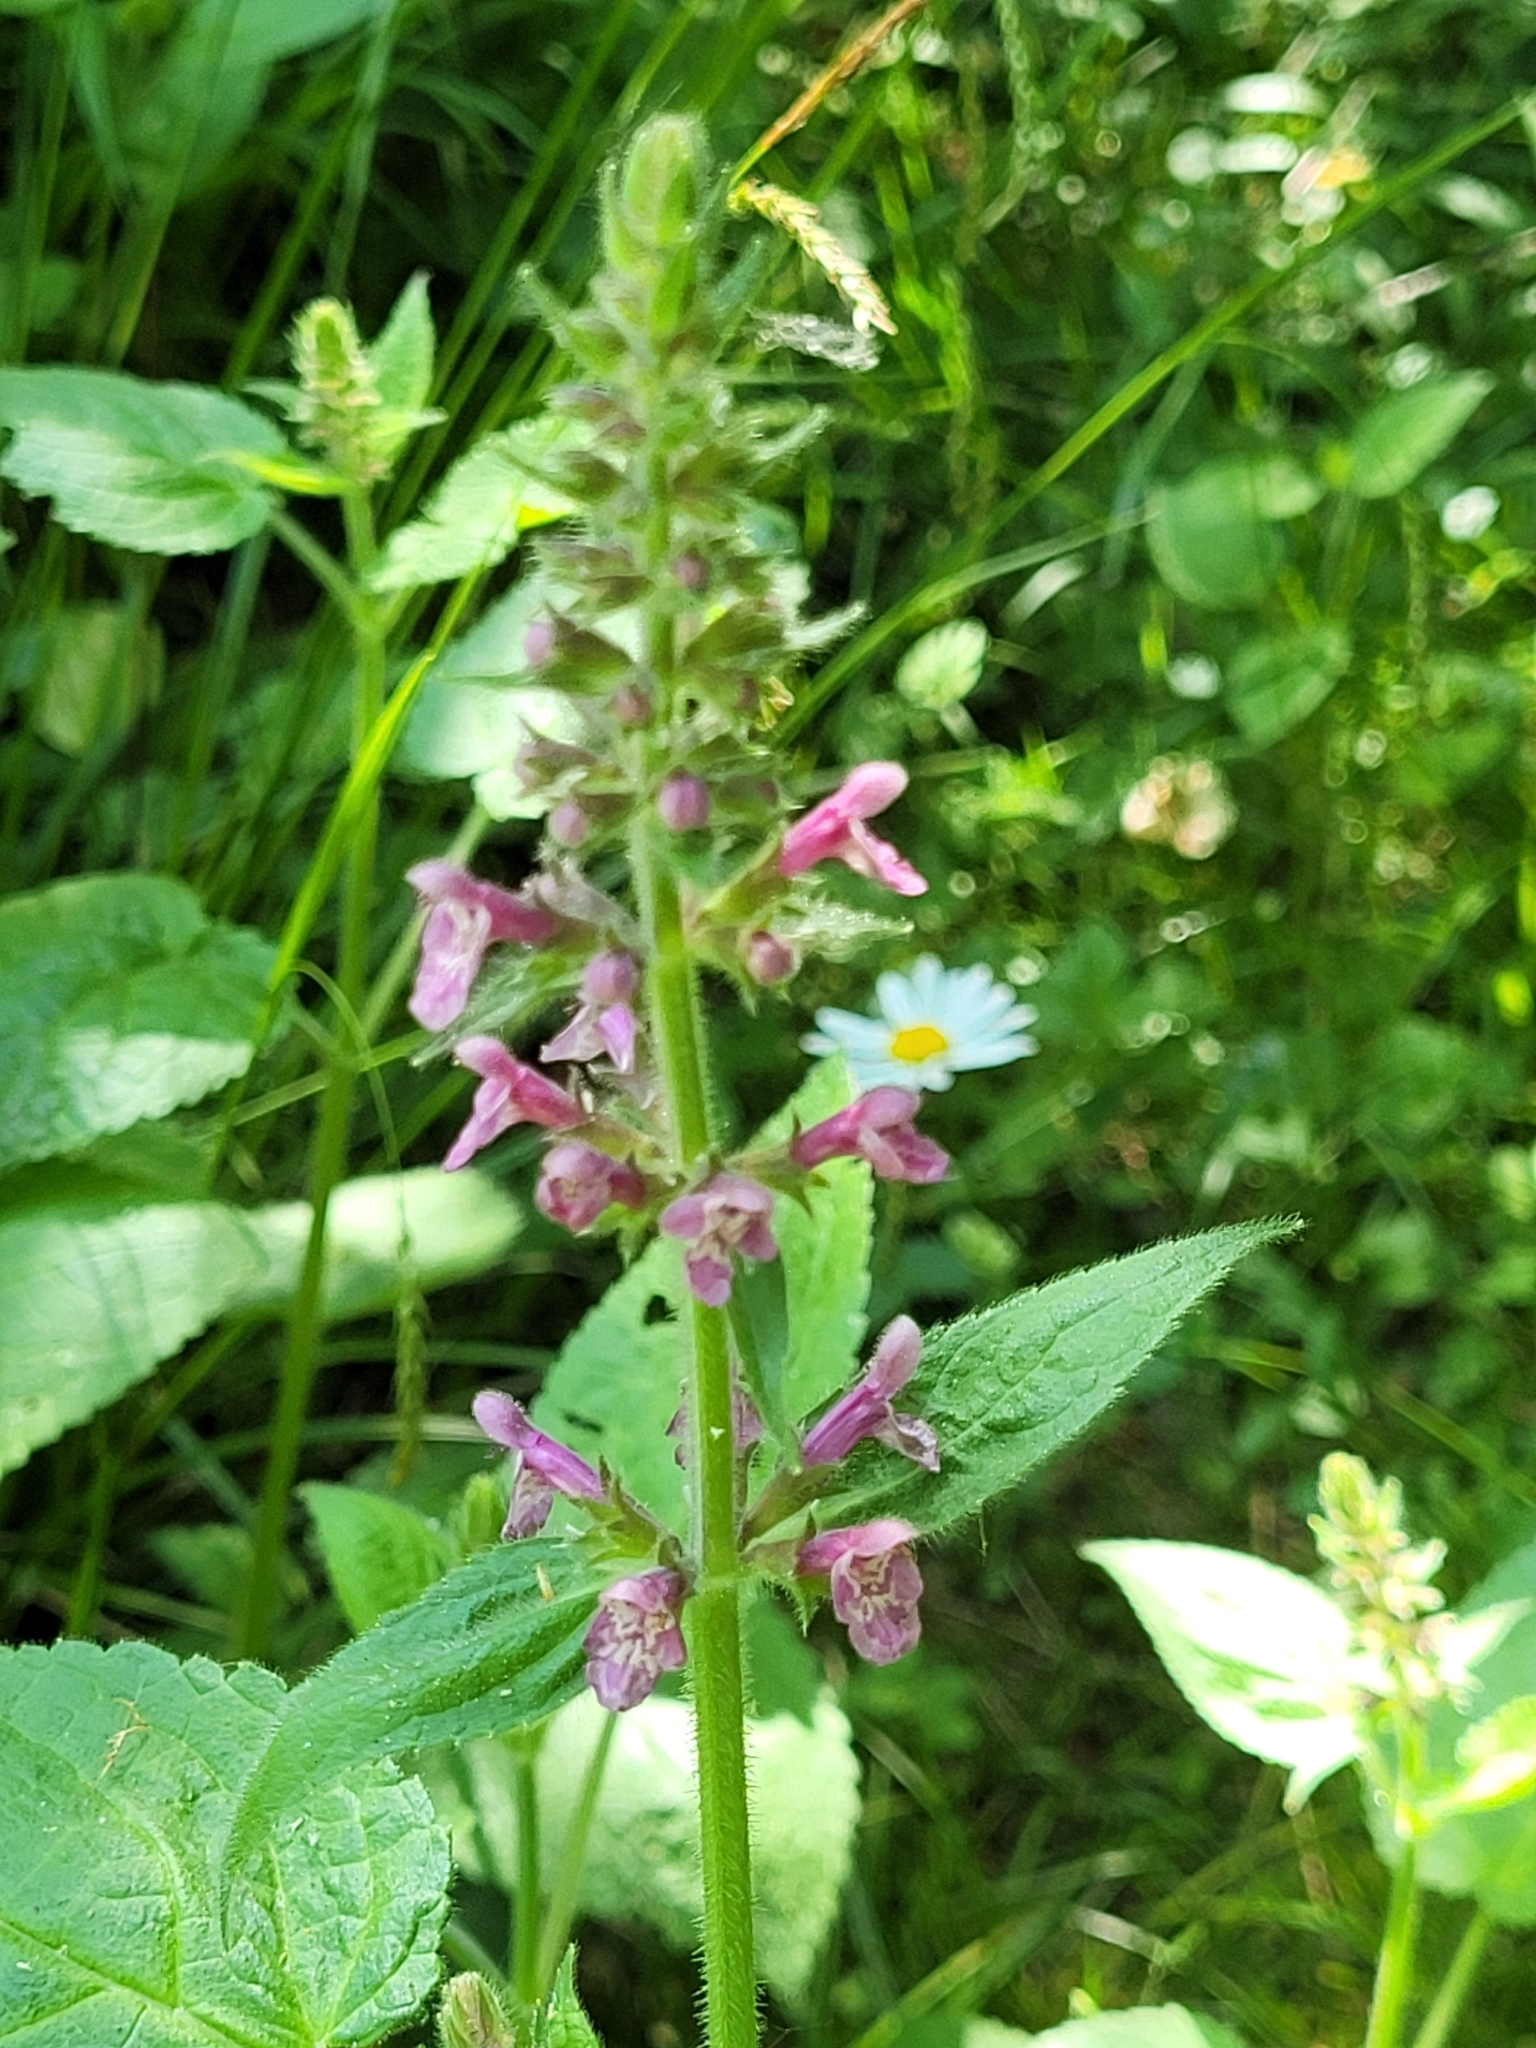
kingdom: Plantae
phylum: Tracheophyta
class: Magnoliopsida
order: Lamiales
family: Lamiaceae
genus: Stachys
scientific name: Stachys sylvatica
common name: Hedge woundwort
